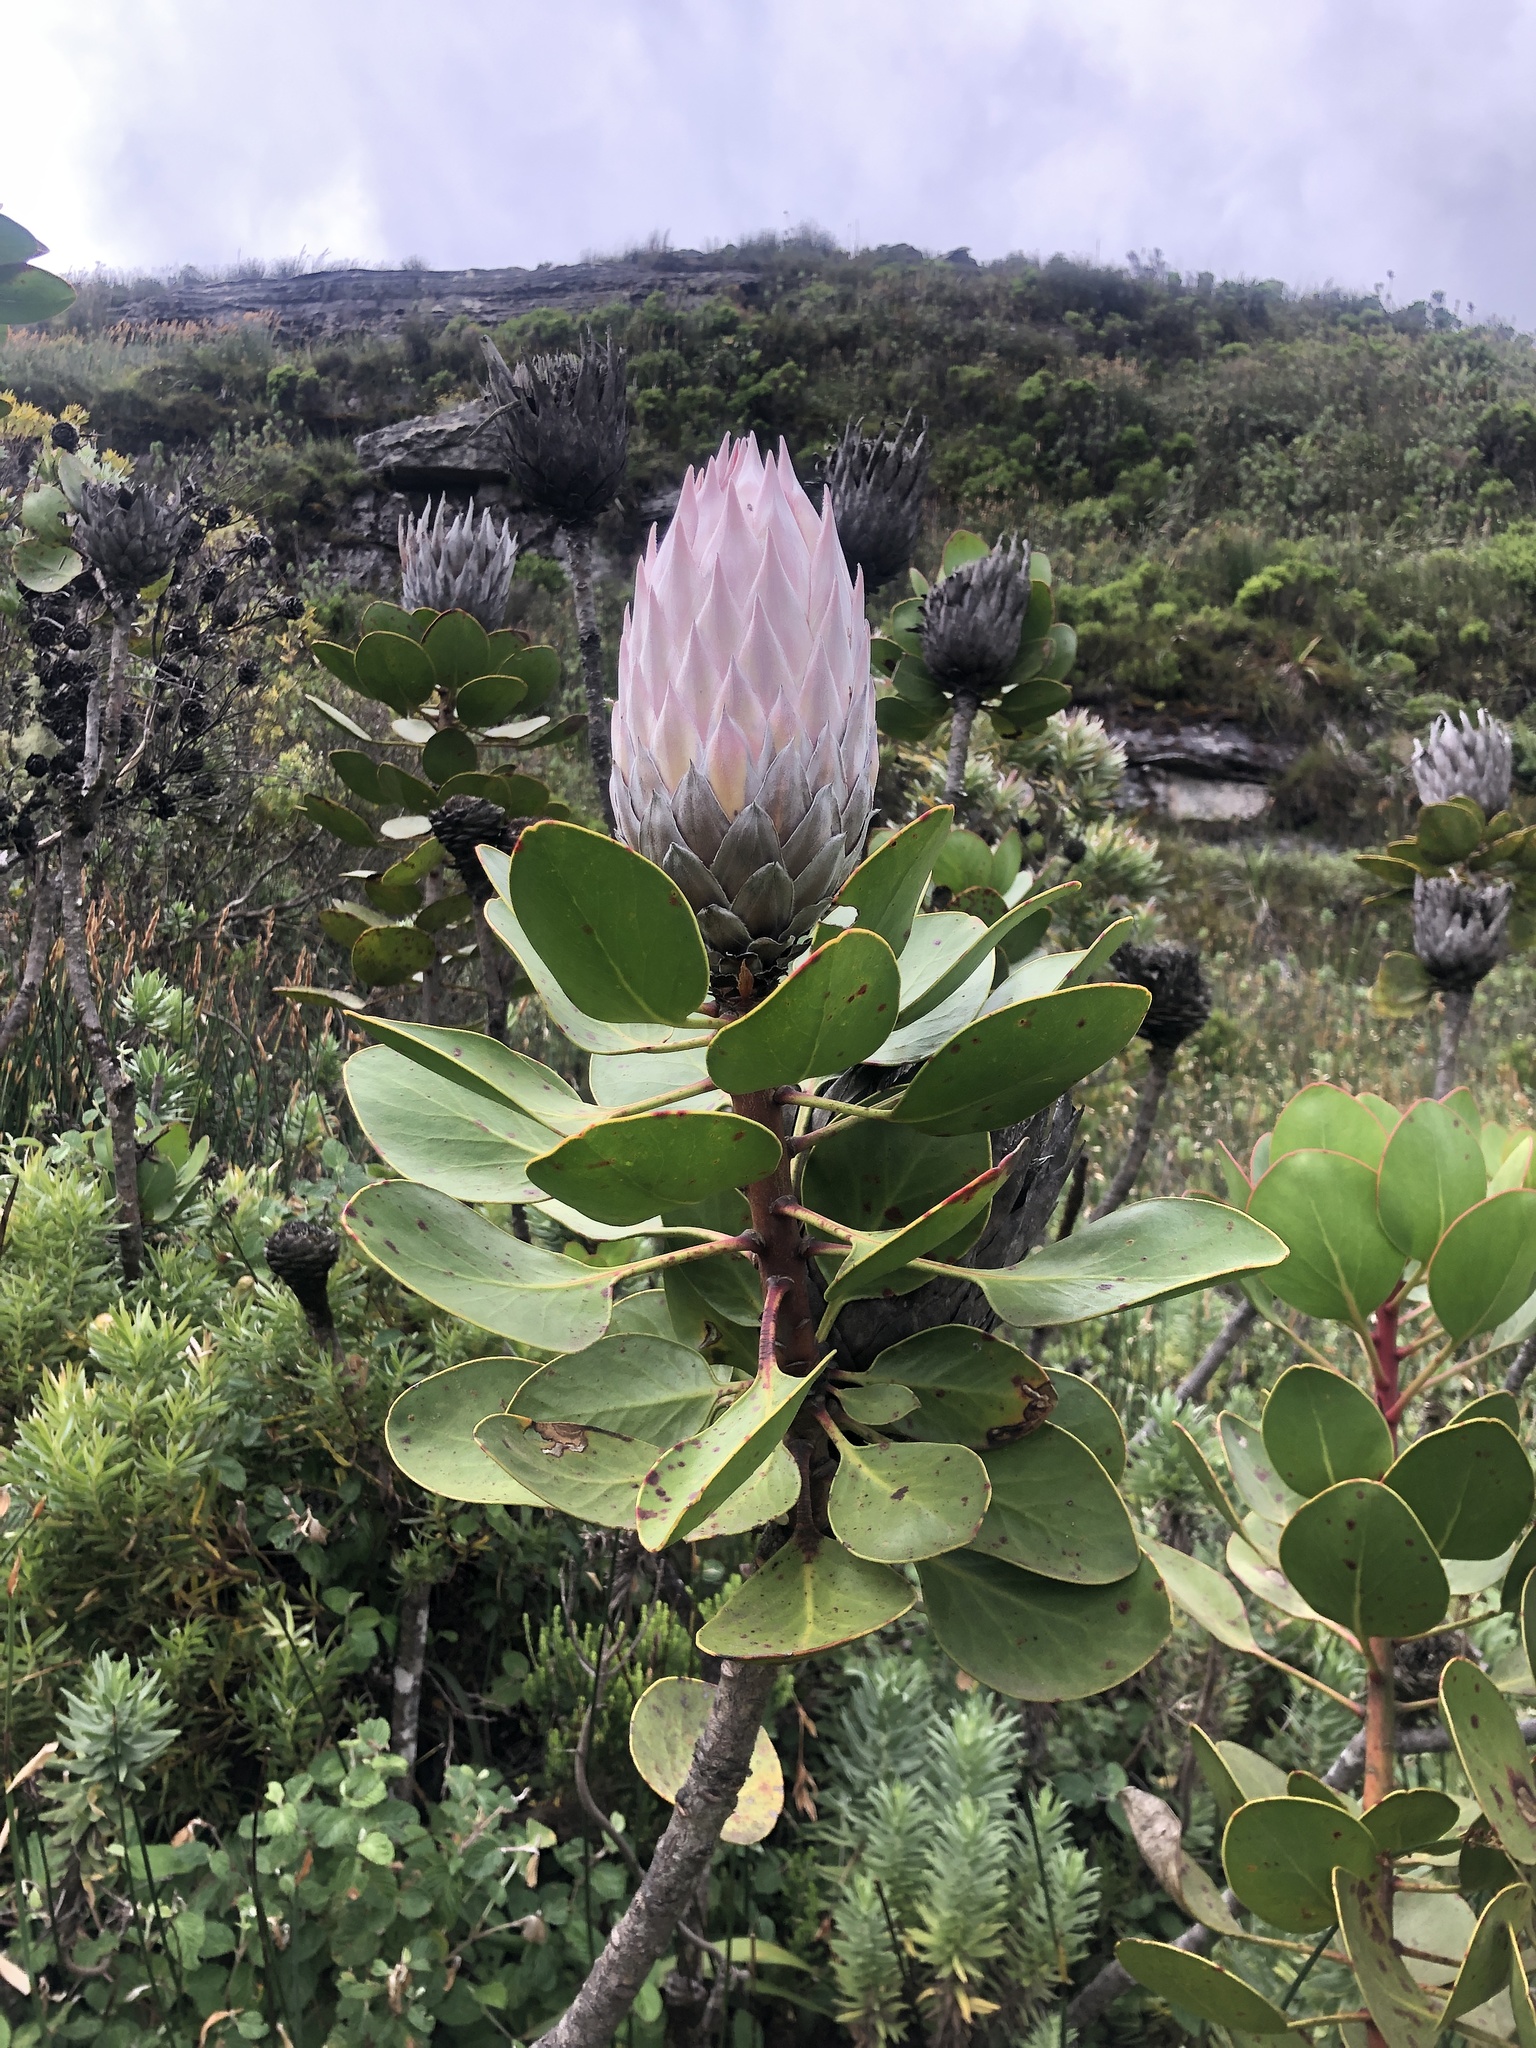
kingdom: Plantae
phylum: Tracheophyta
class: Magnoliopsida
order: Proteales
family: Proteaceae
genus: Protea
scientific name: Protea cynaroides
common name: King protea
